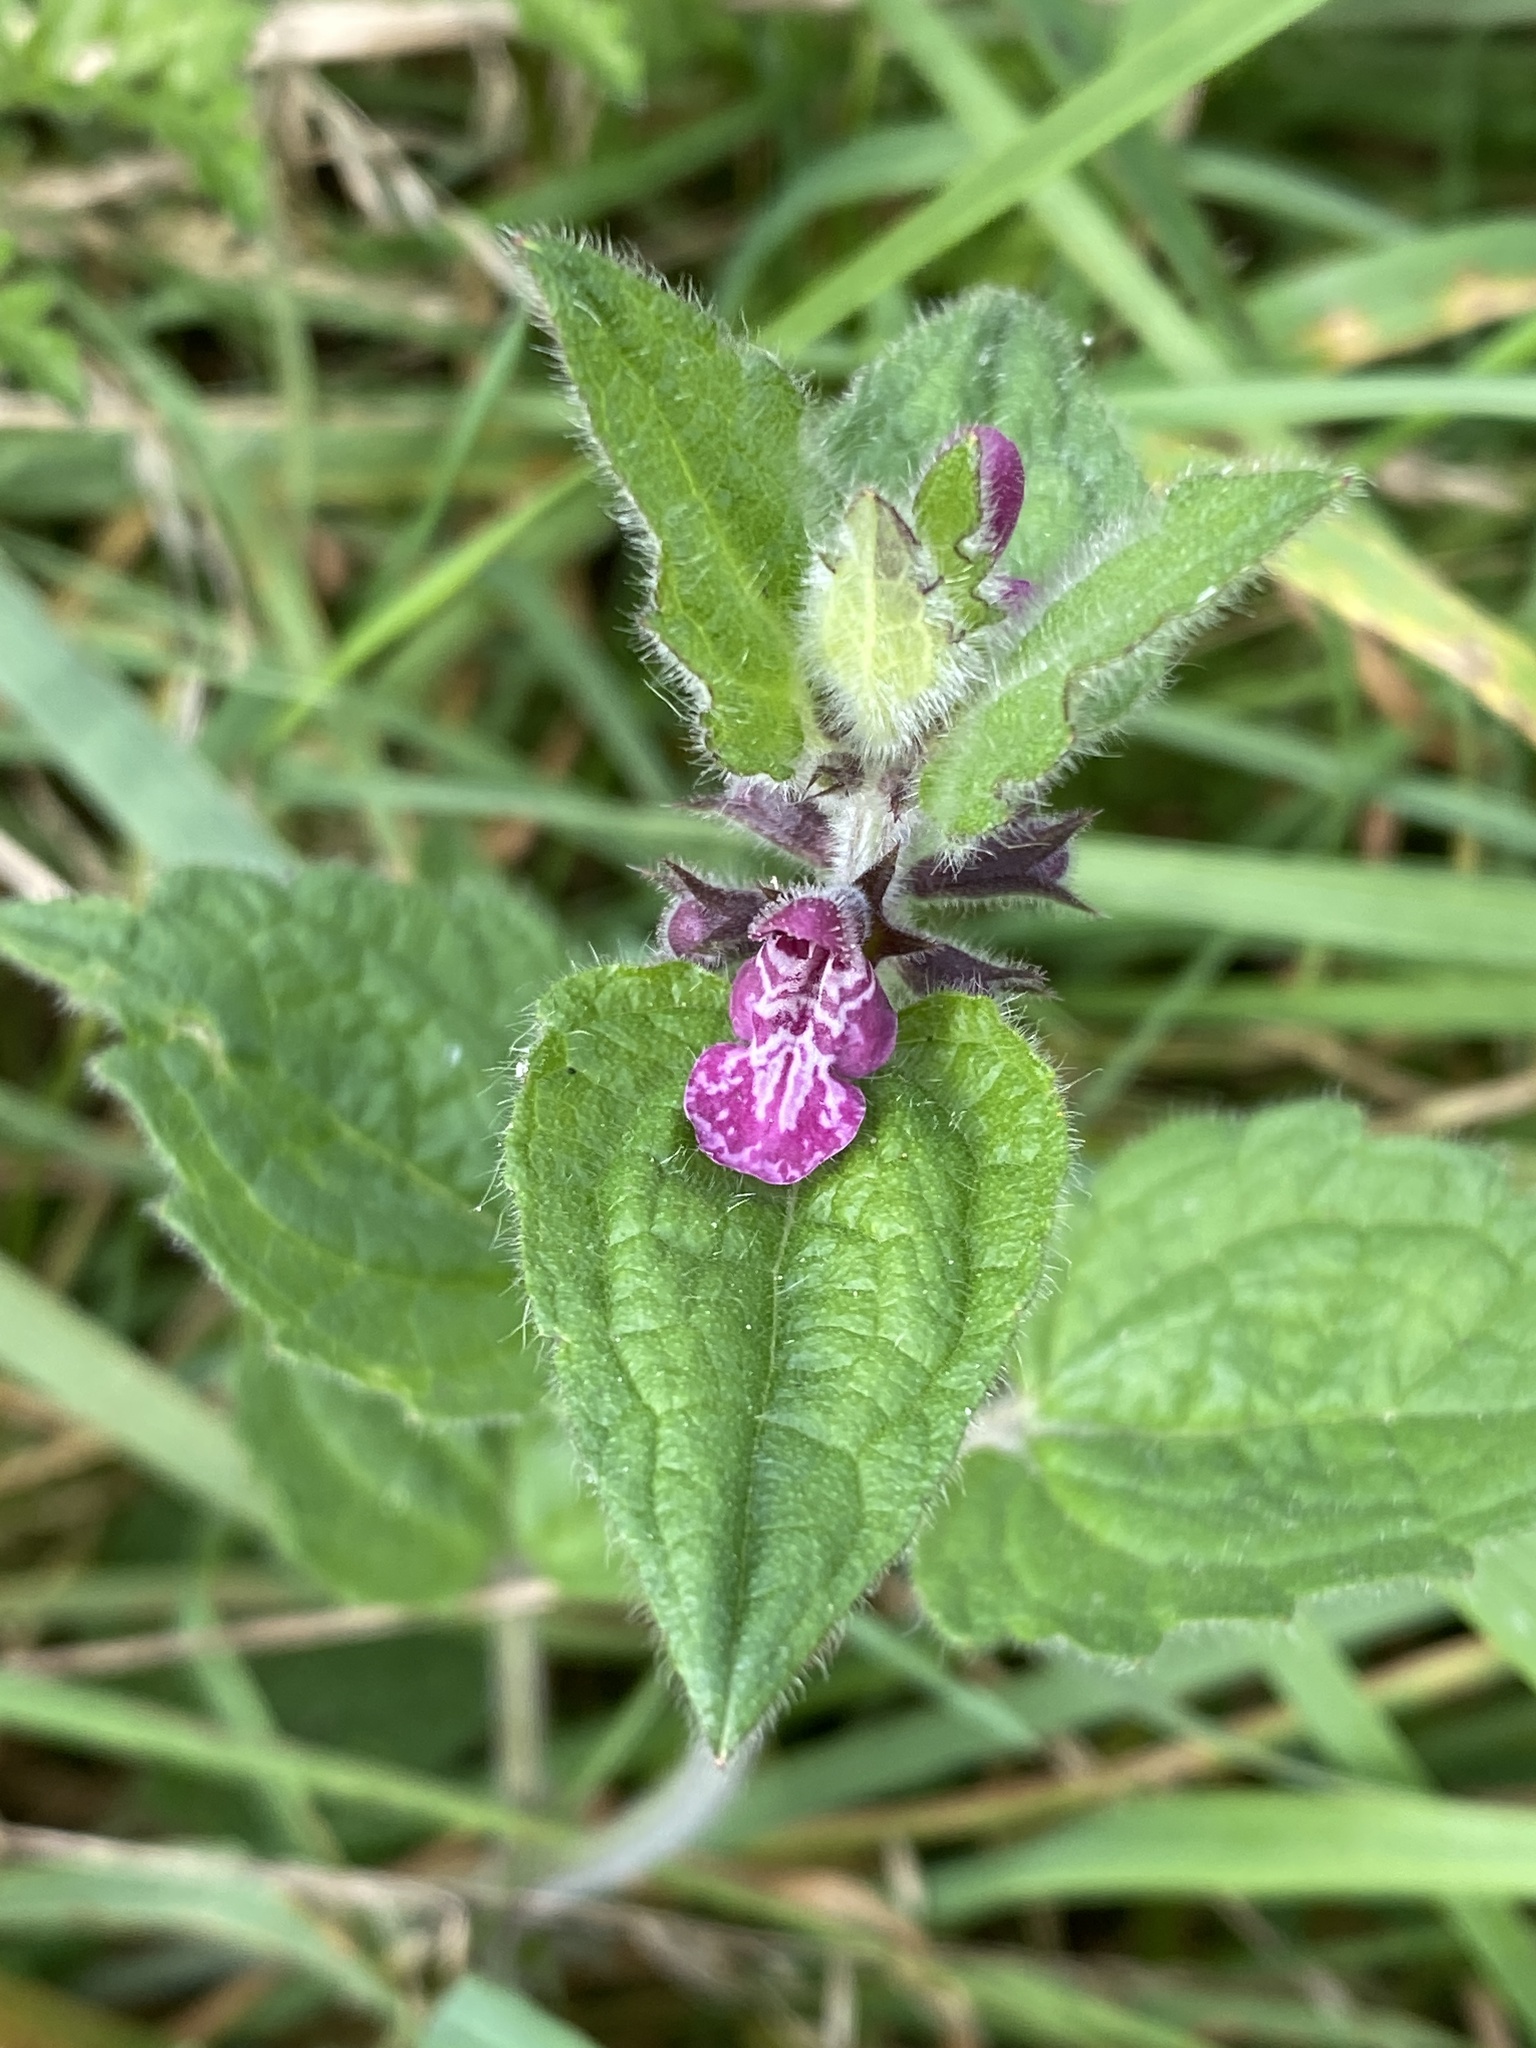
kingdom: Plantae
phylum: Tracheophyta
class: Magnoliopsida
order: Lamiales
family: Lamiaceae
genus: Stachys
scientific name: Stachys sylvatica
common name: Hedge woundwort
